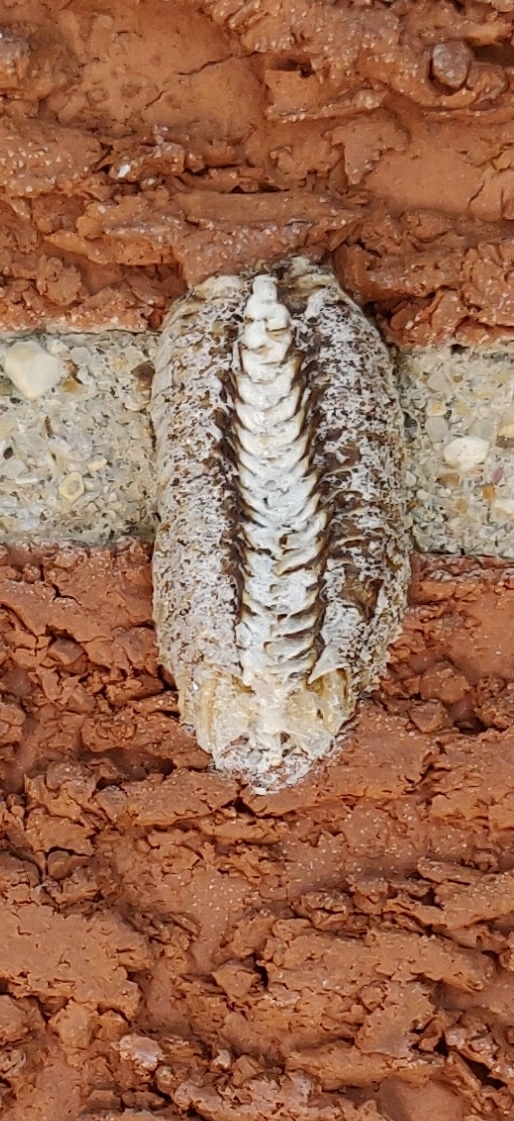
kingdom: Animalia
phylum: Arthropoda
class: Insecta
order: Mantodea
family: Mantidae
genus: Stagmomantis
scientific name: Stagmomantis carolina
